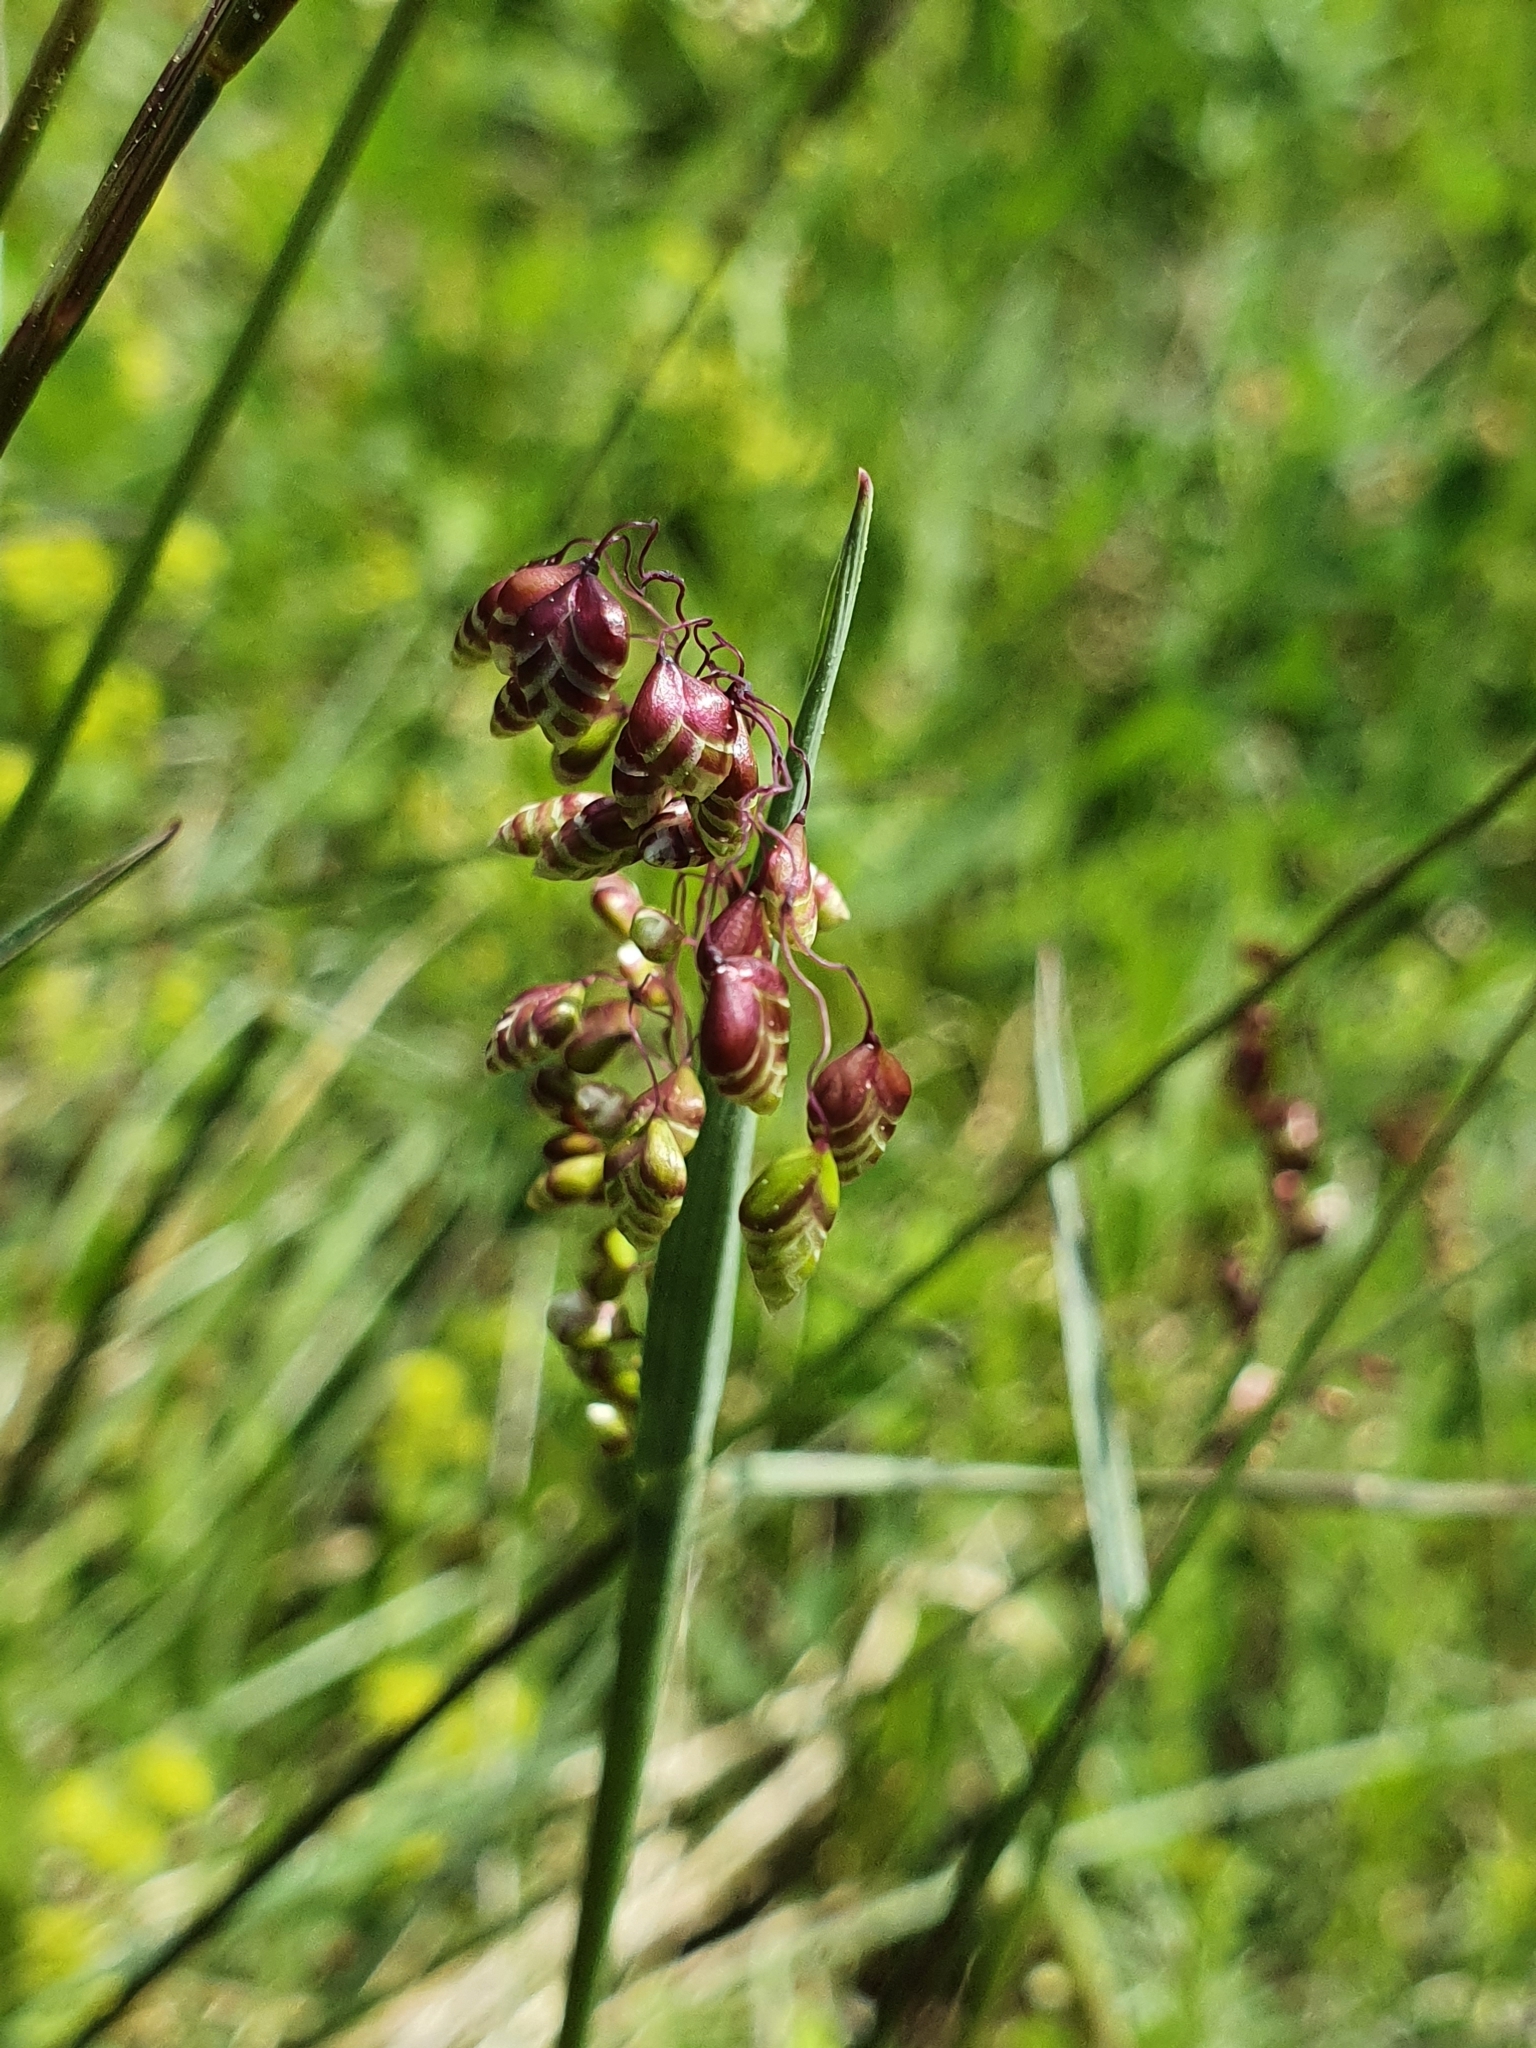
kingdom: Plantae
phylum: Tracheophyta
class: Liliopsida
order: Poales
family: Poaceae
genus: Briza
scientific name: Briza media
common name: Quaking grass
